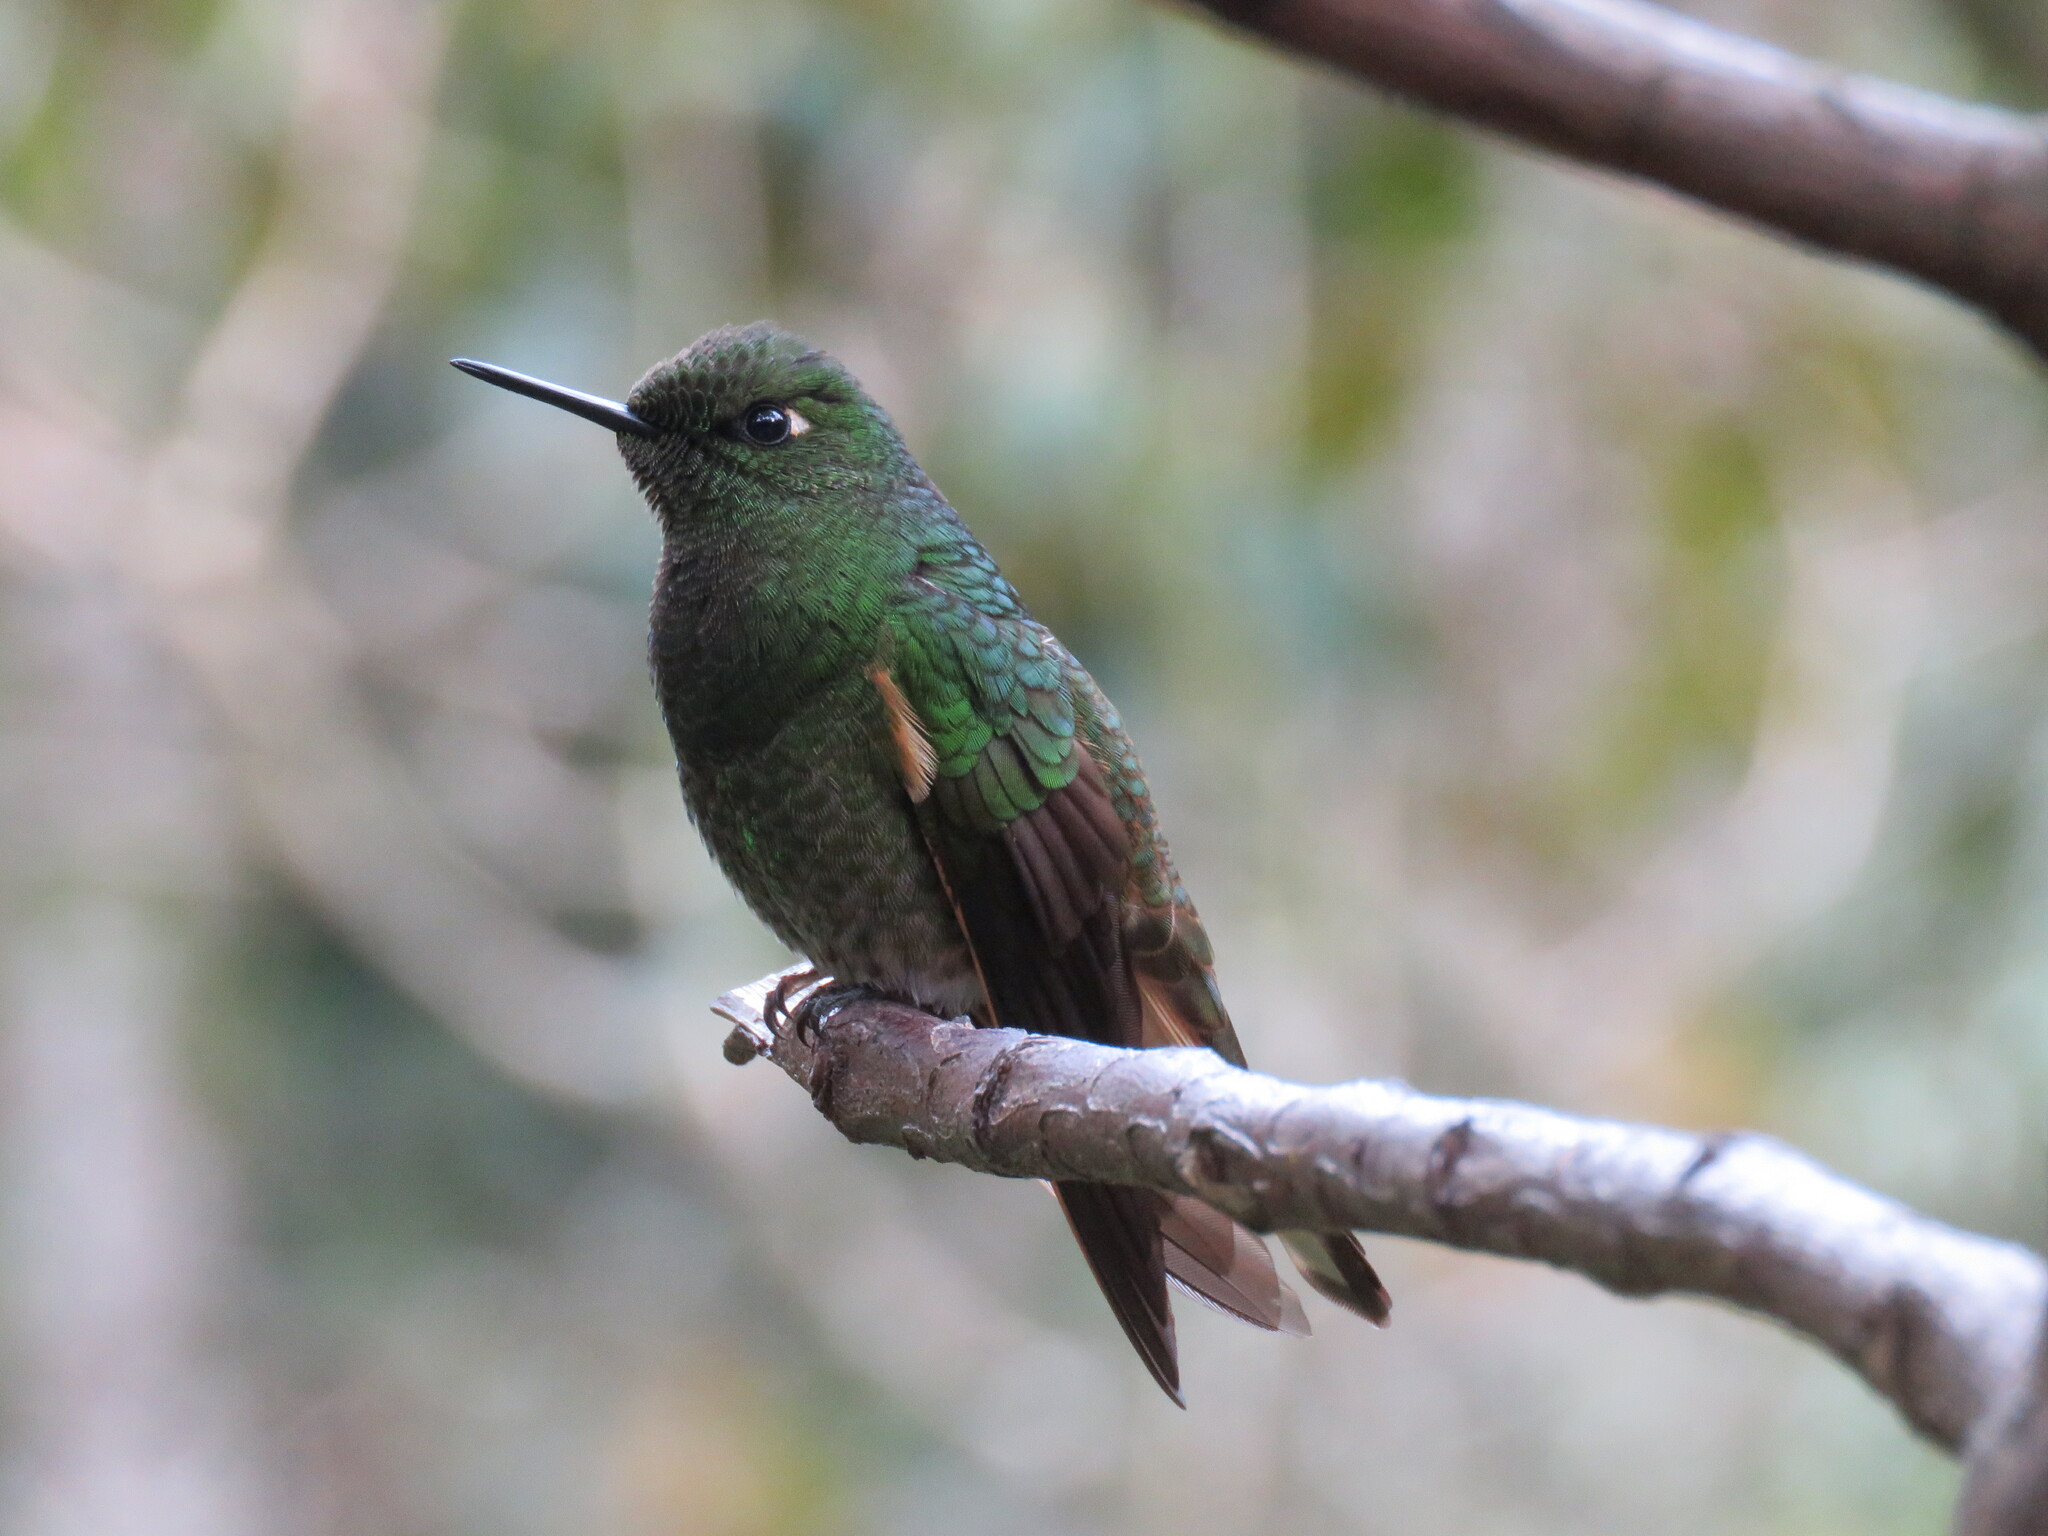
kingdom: Animalia
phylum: Chordata
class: Aves
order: Apodiformes
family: Trochilidae
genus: Boissonneaua
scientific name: Boissonneaua flavescens
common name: Buff-tailed coronet
